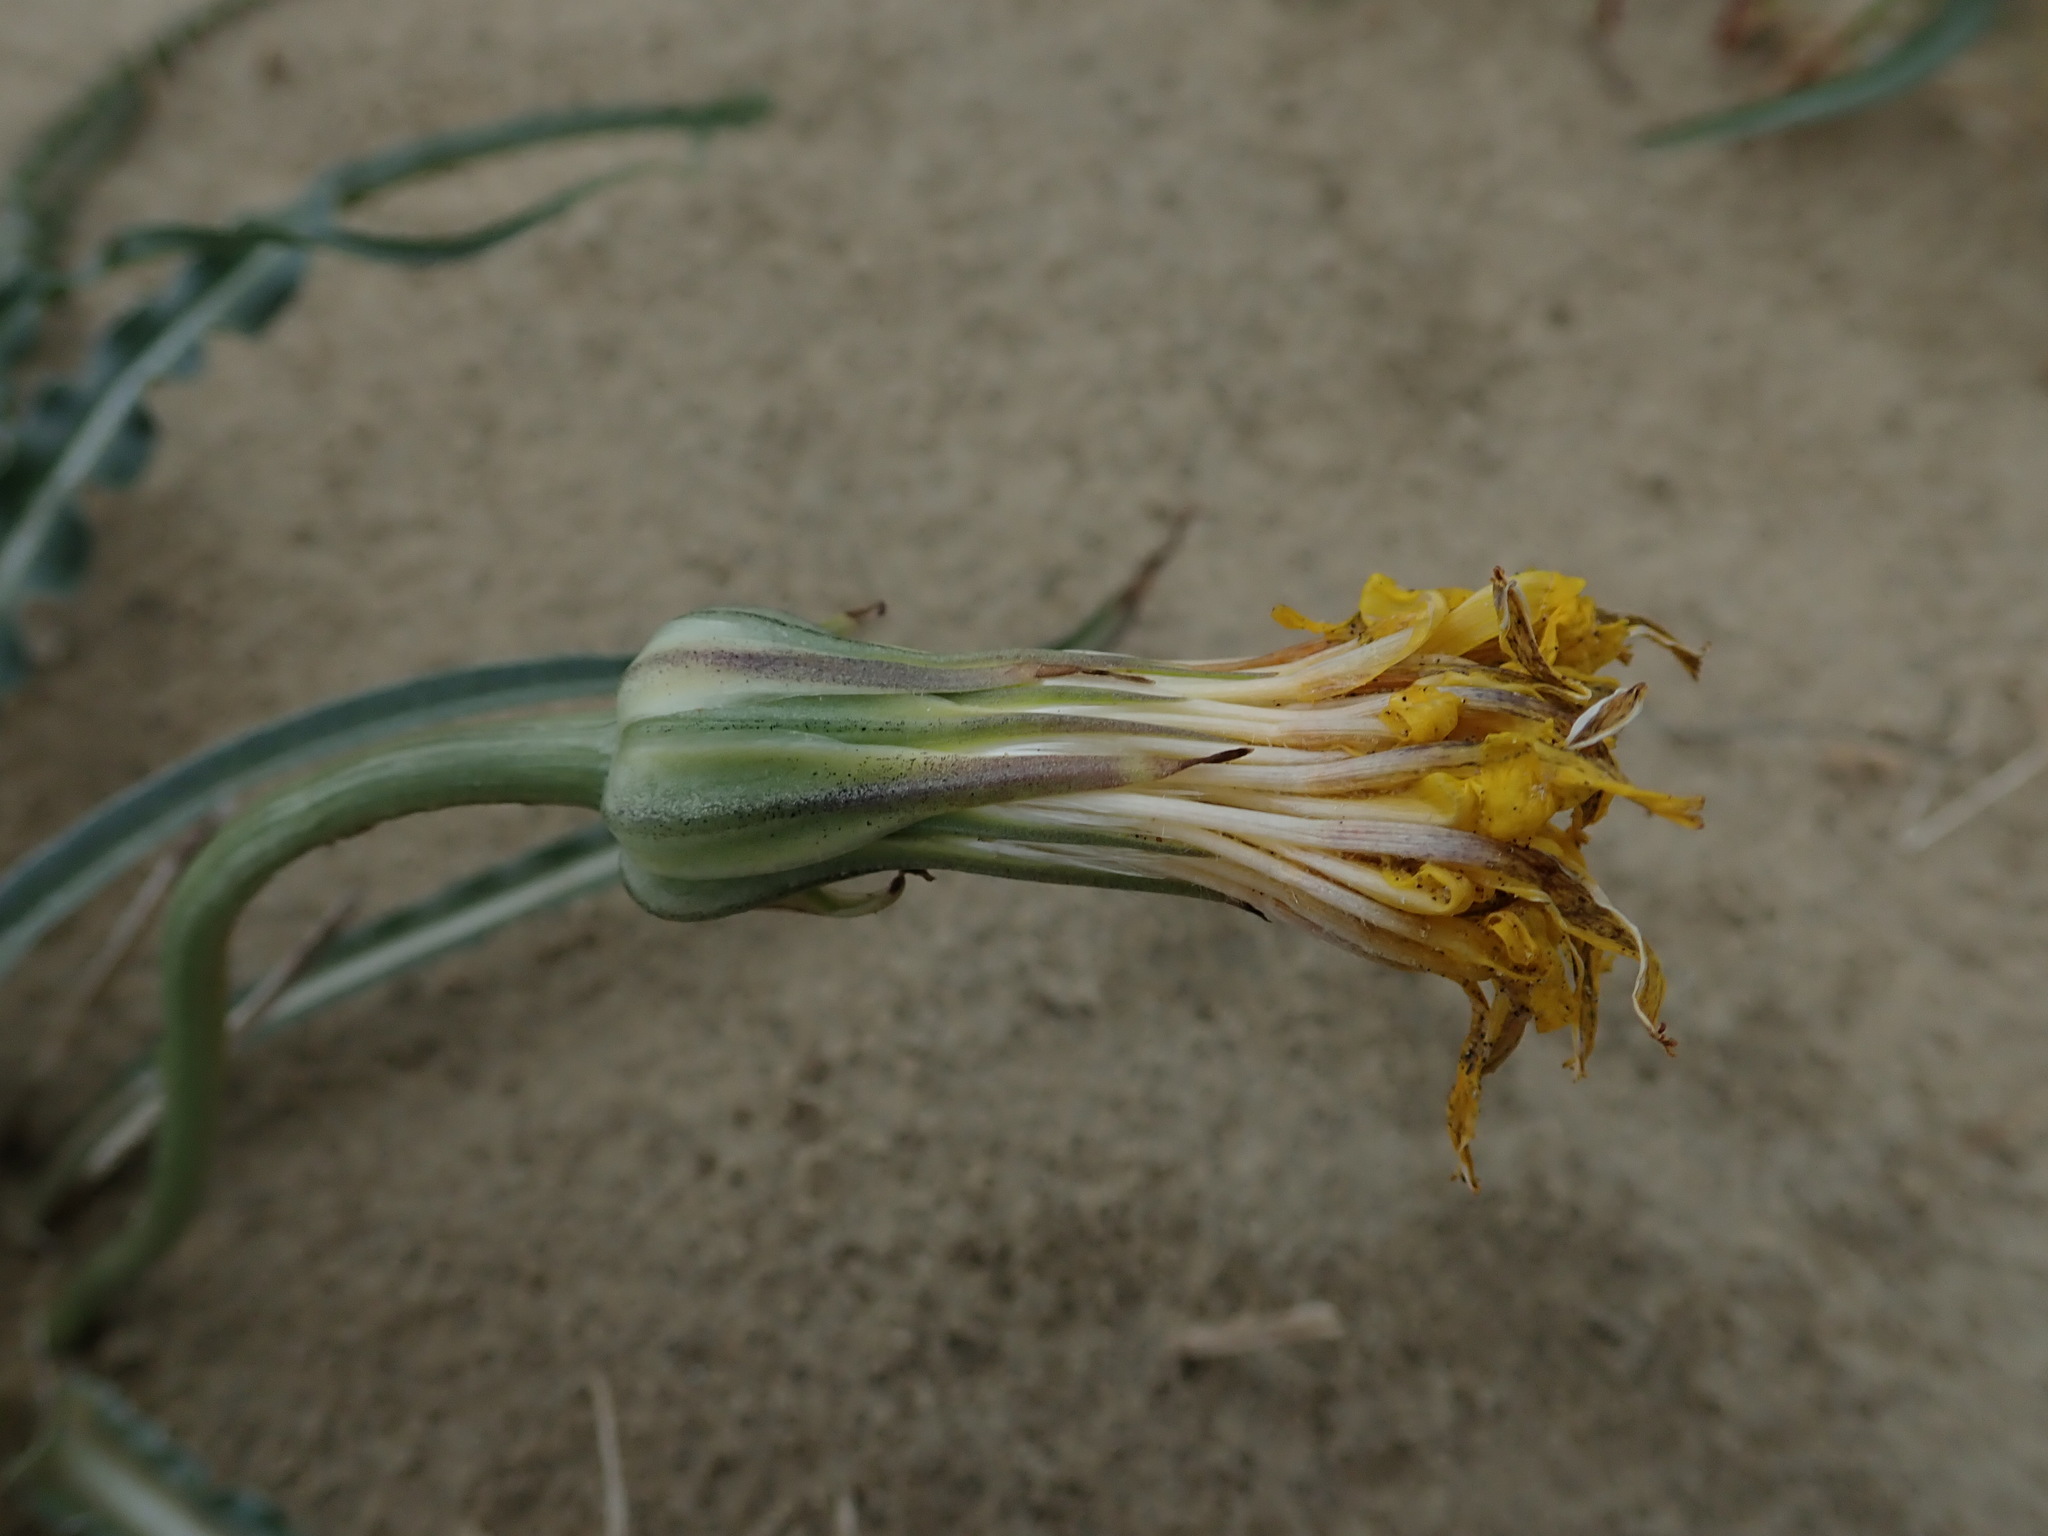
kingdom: Plantae
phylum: Tracheophyta
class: Magnoliopsida
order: Asterales
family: Asteraceae
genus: Microseris
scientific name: Microseris troximoides
